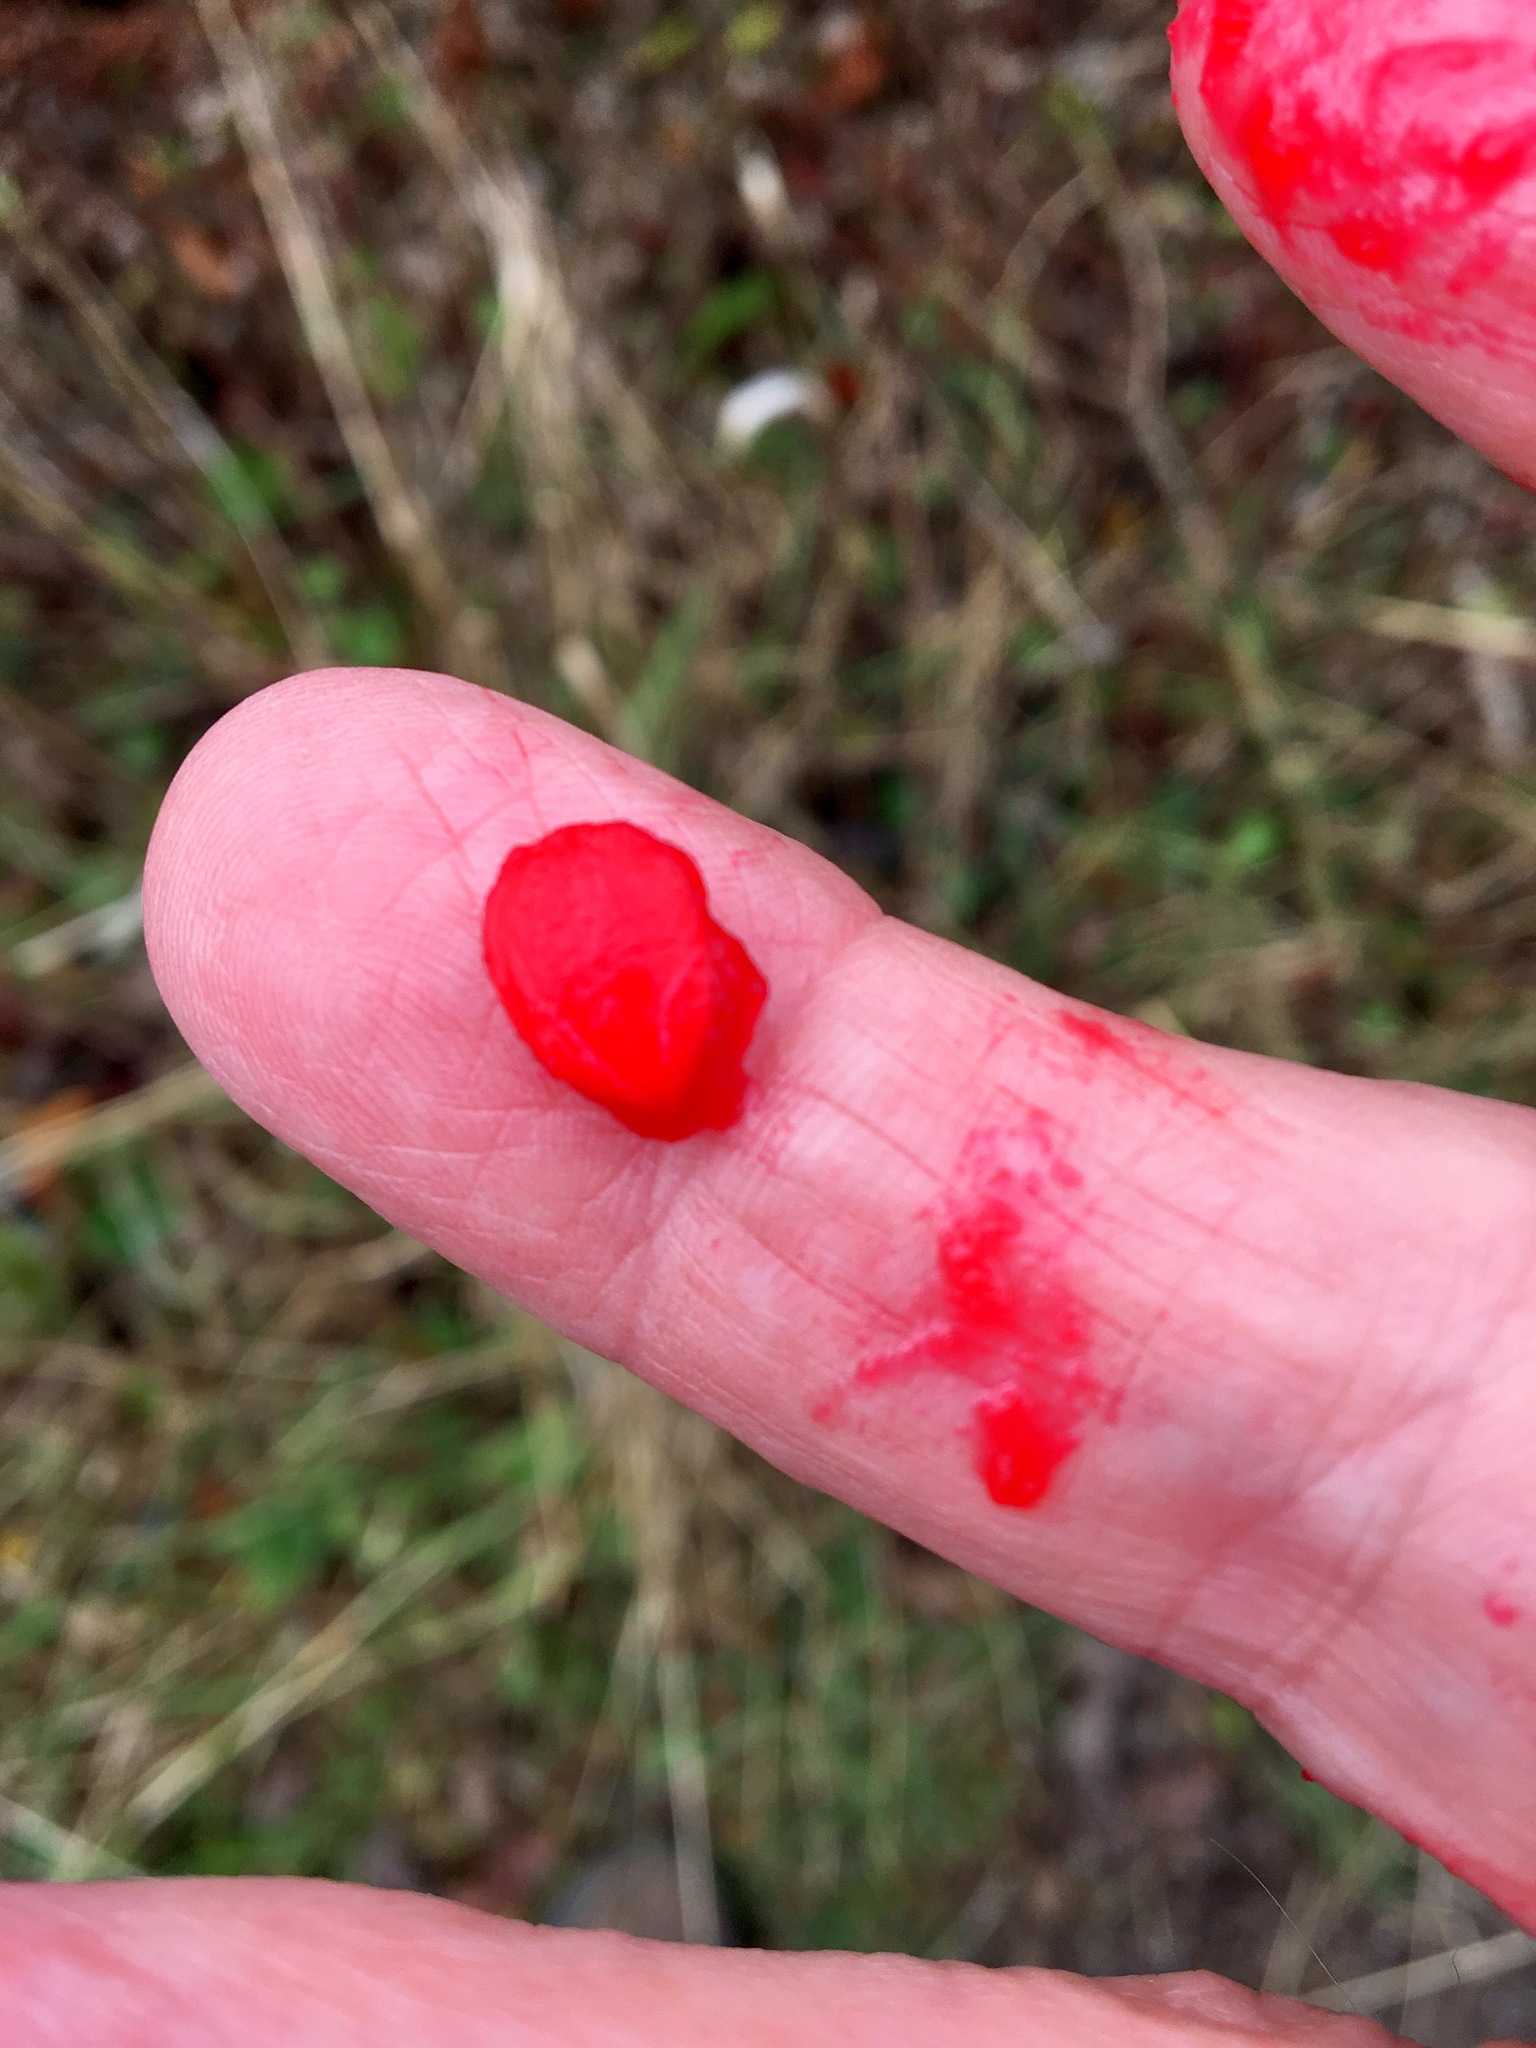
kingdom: Plantae
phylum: Tracheophyta
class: Magnoliopsida
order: Dipsacales
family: Viburnaceae
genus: Viburnum
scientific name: Viburnum opulus
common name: Guelder-rose
